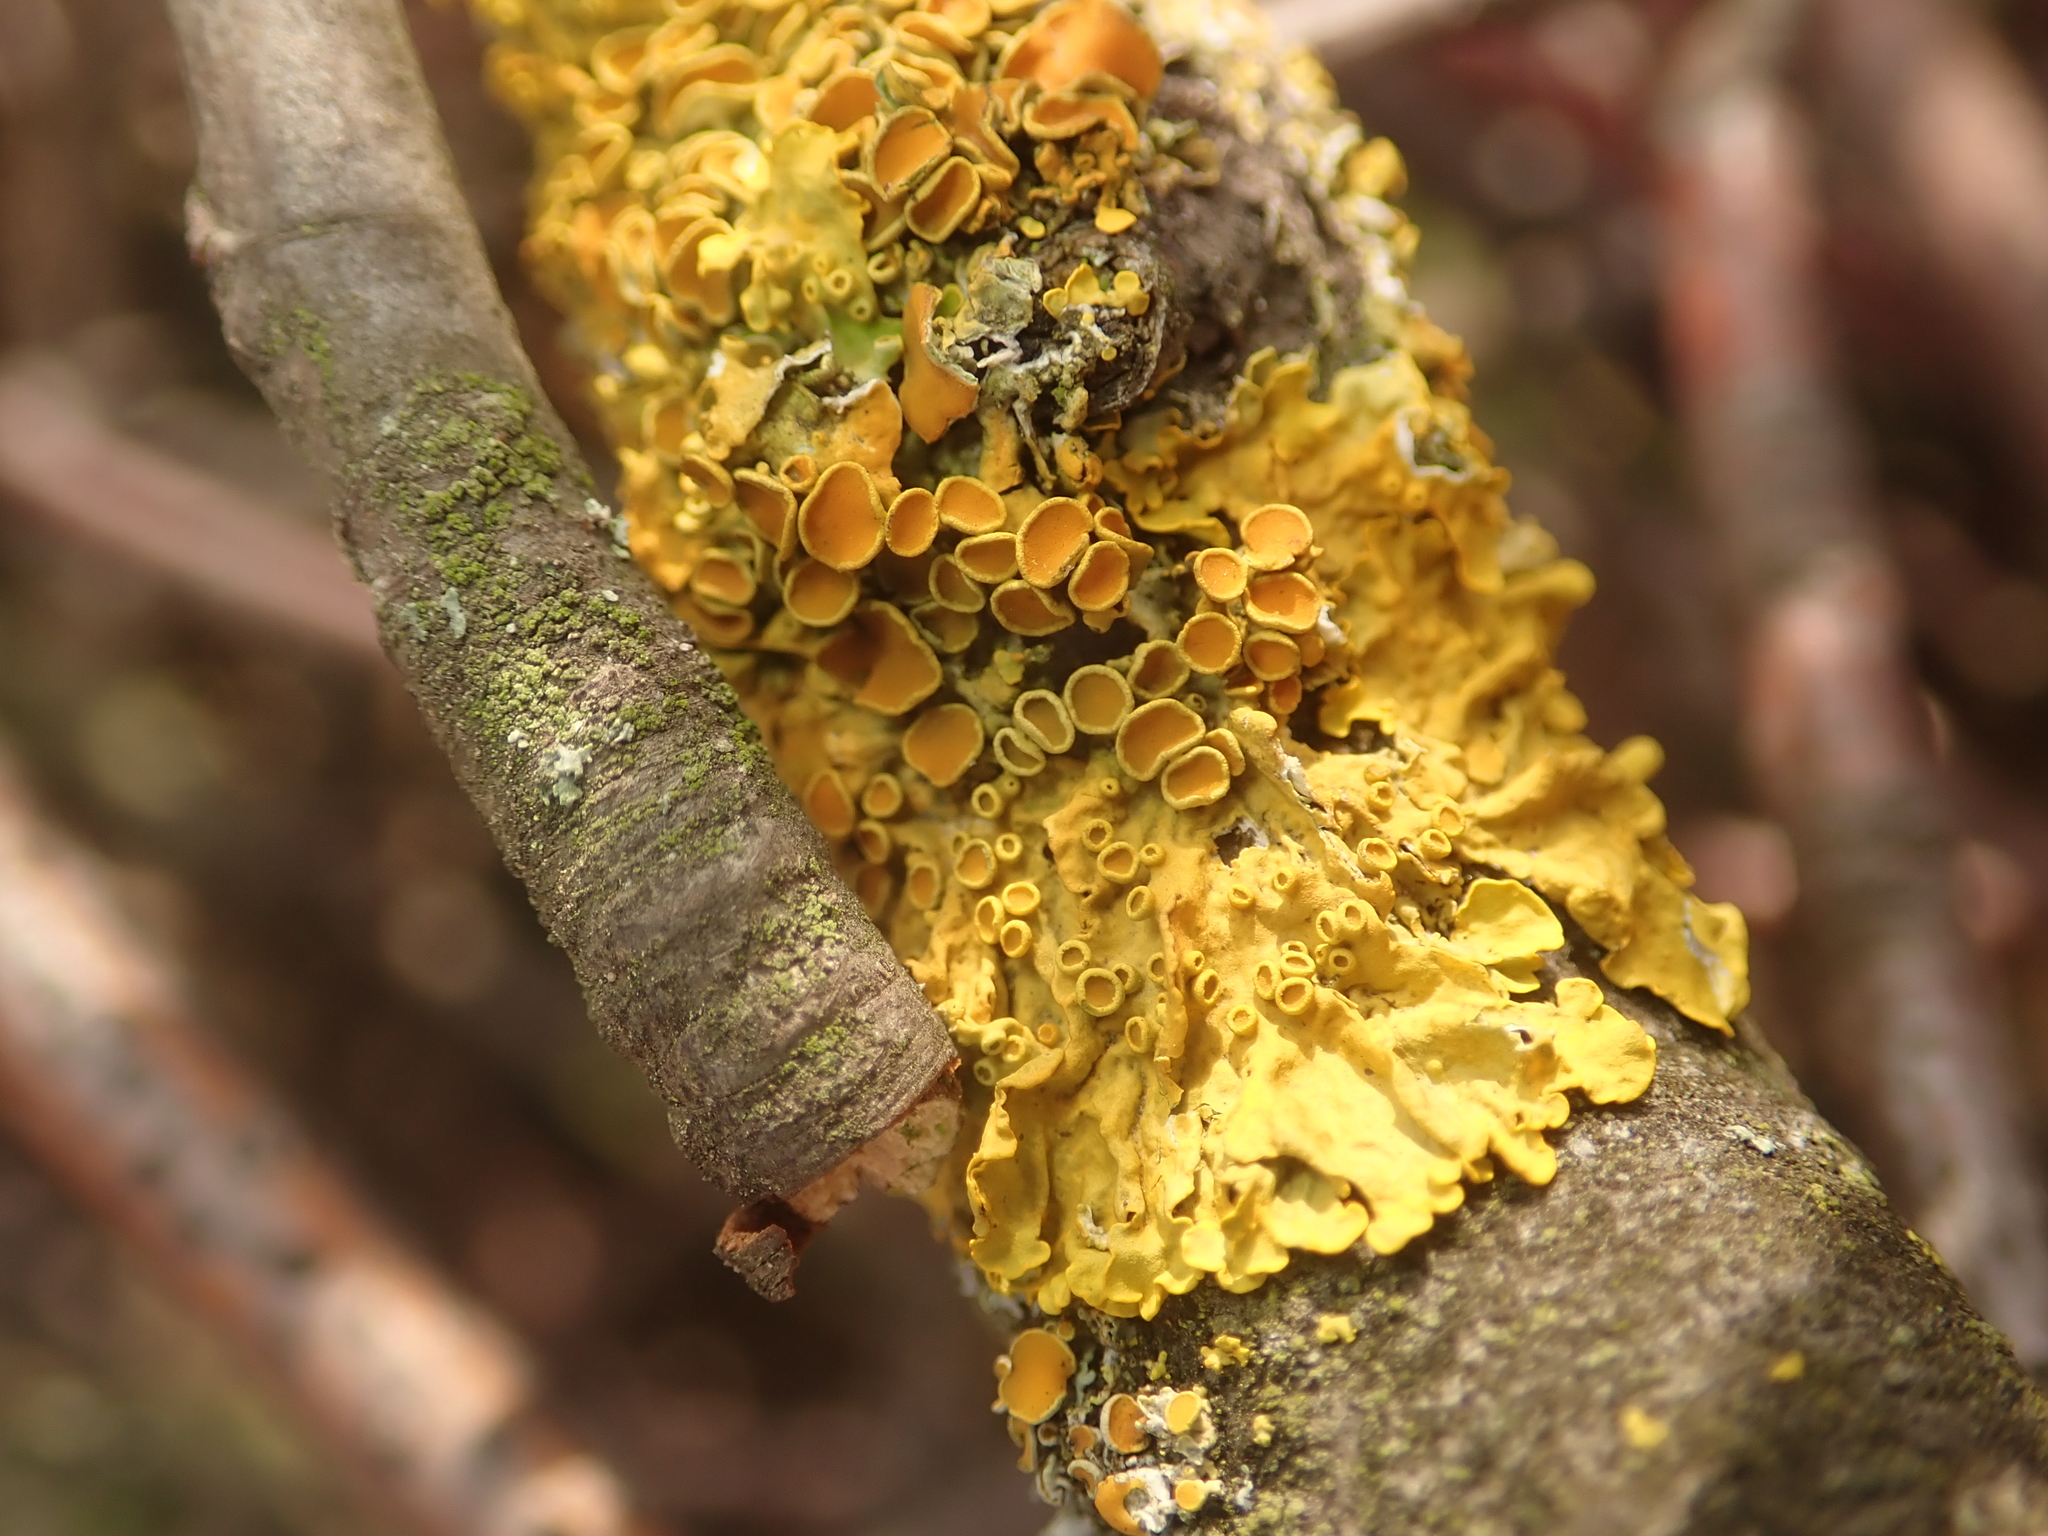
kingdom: Fungi
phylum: Ascomycota
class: Lecanoromycetes
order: Teloschistales
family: Teloschistaceae
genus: Xanthoria
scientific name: Xanthoria parietina
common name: Common orange lichen
